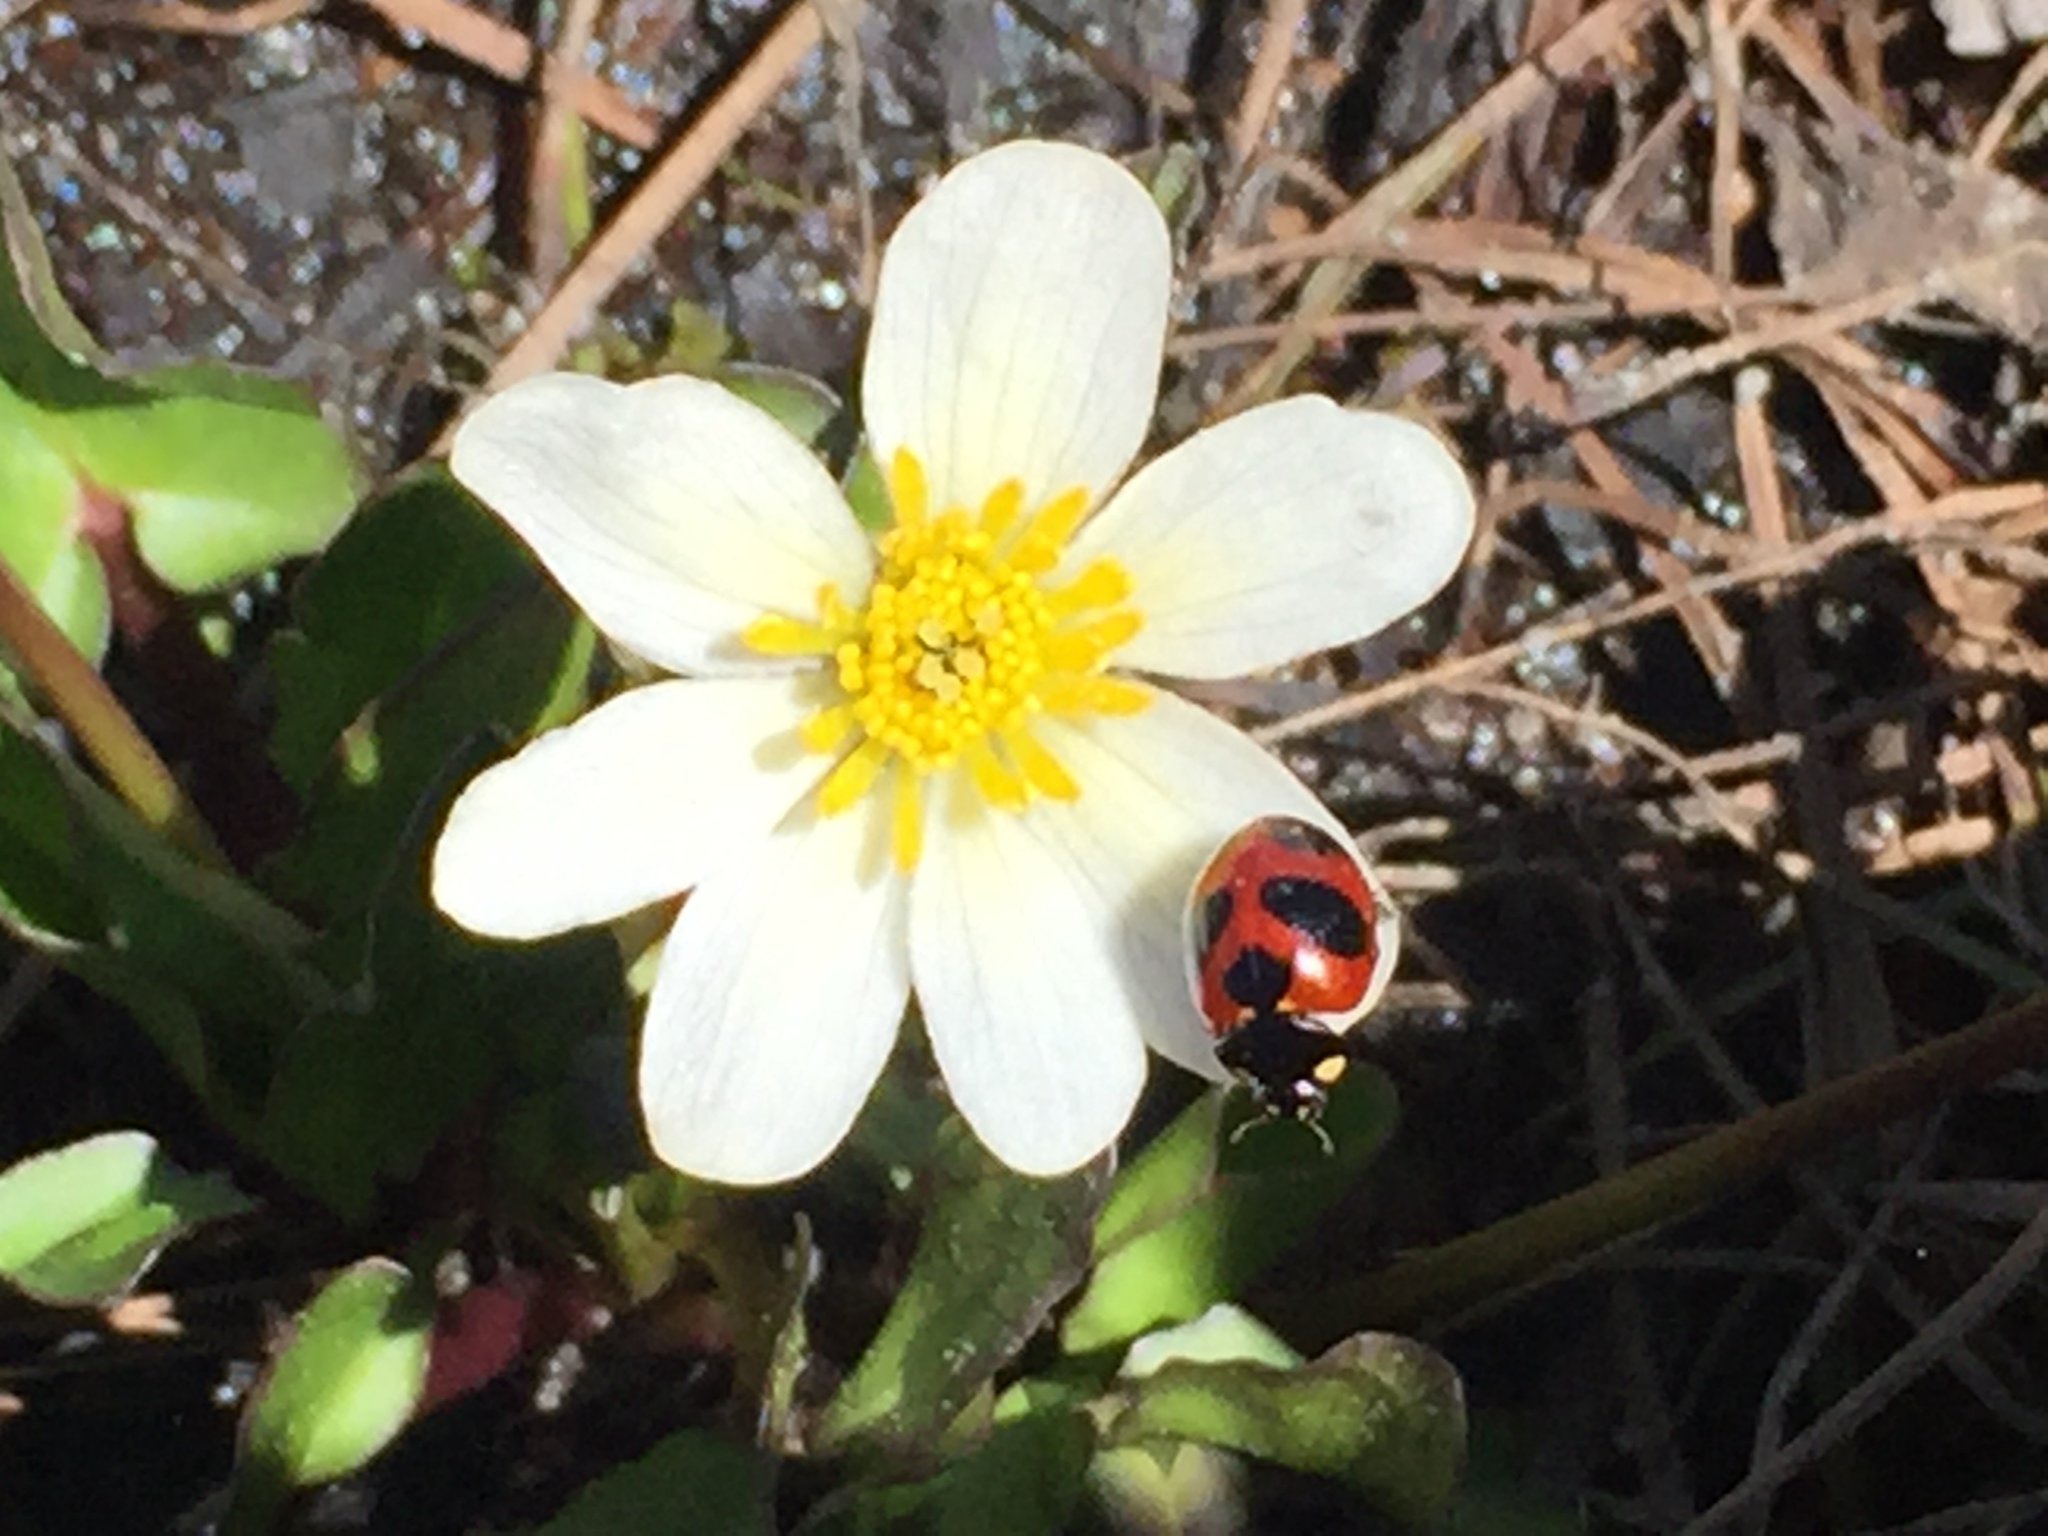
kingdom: Animalia
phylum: Arthropoda
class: Insecta
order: Coleoptera
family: Coccinellidae
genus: Coccinella
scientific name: Coccinella monticola
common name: Mountain lady beetle
